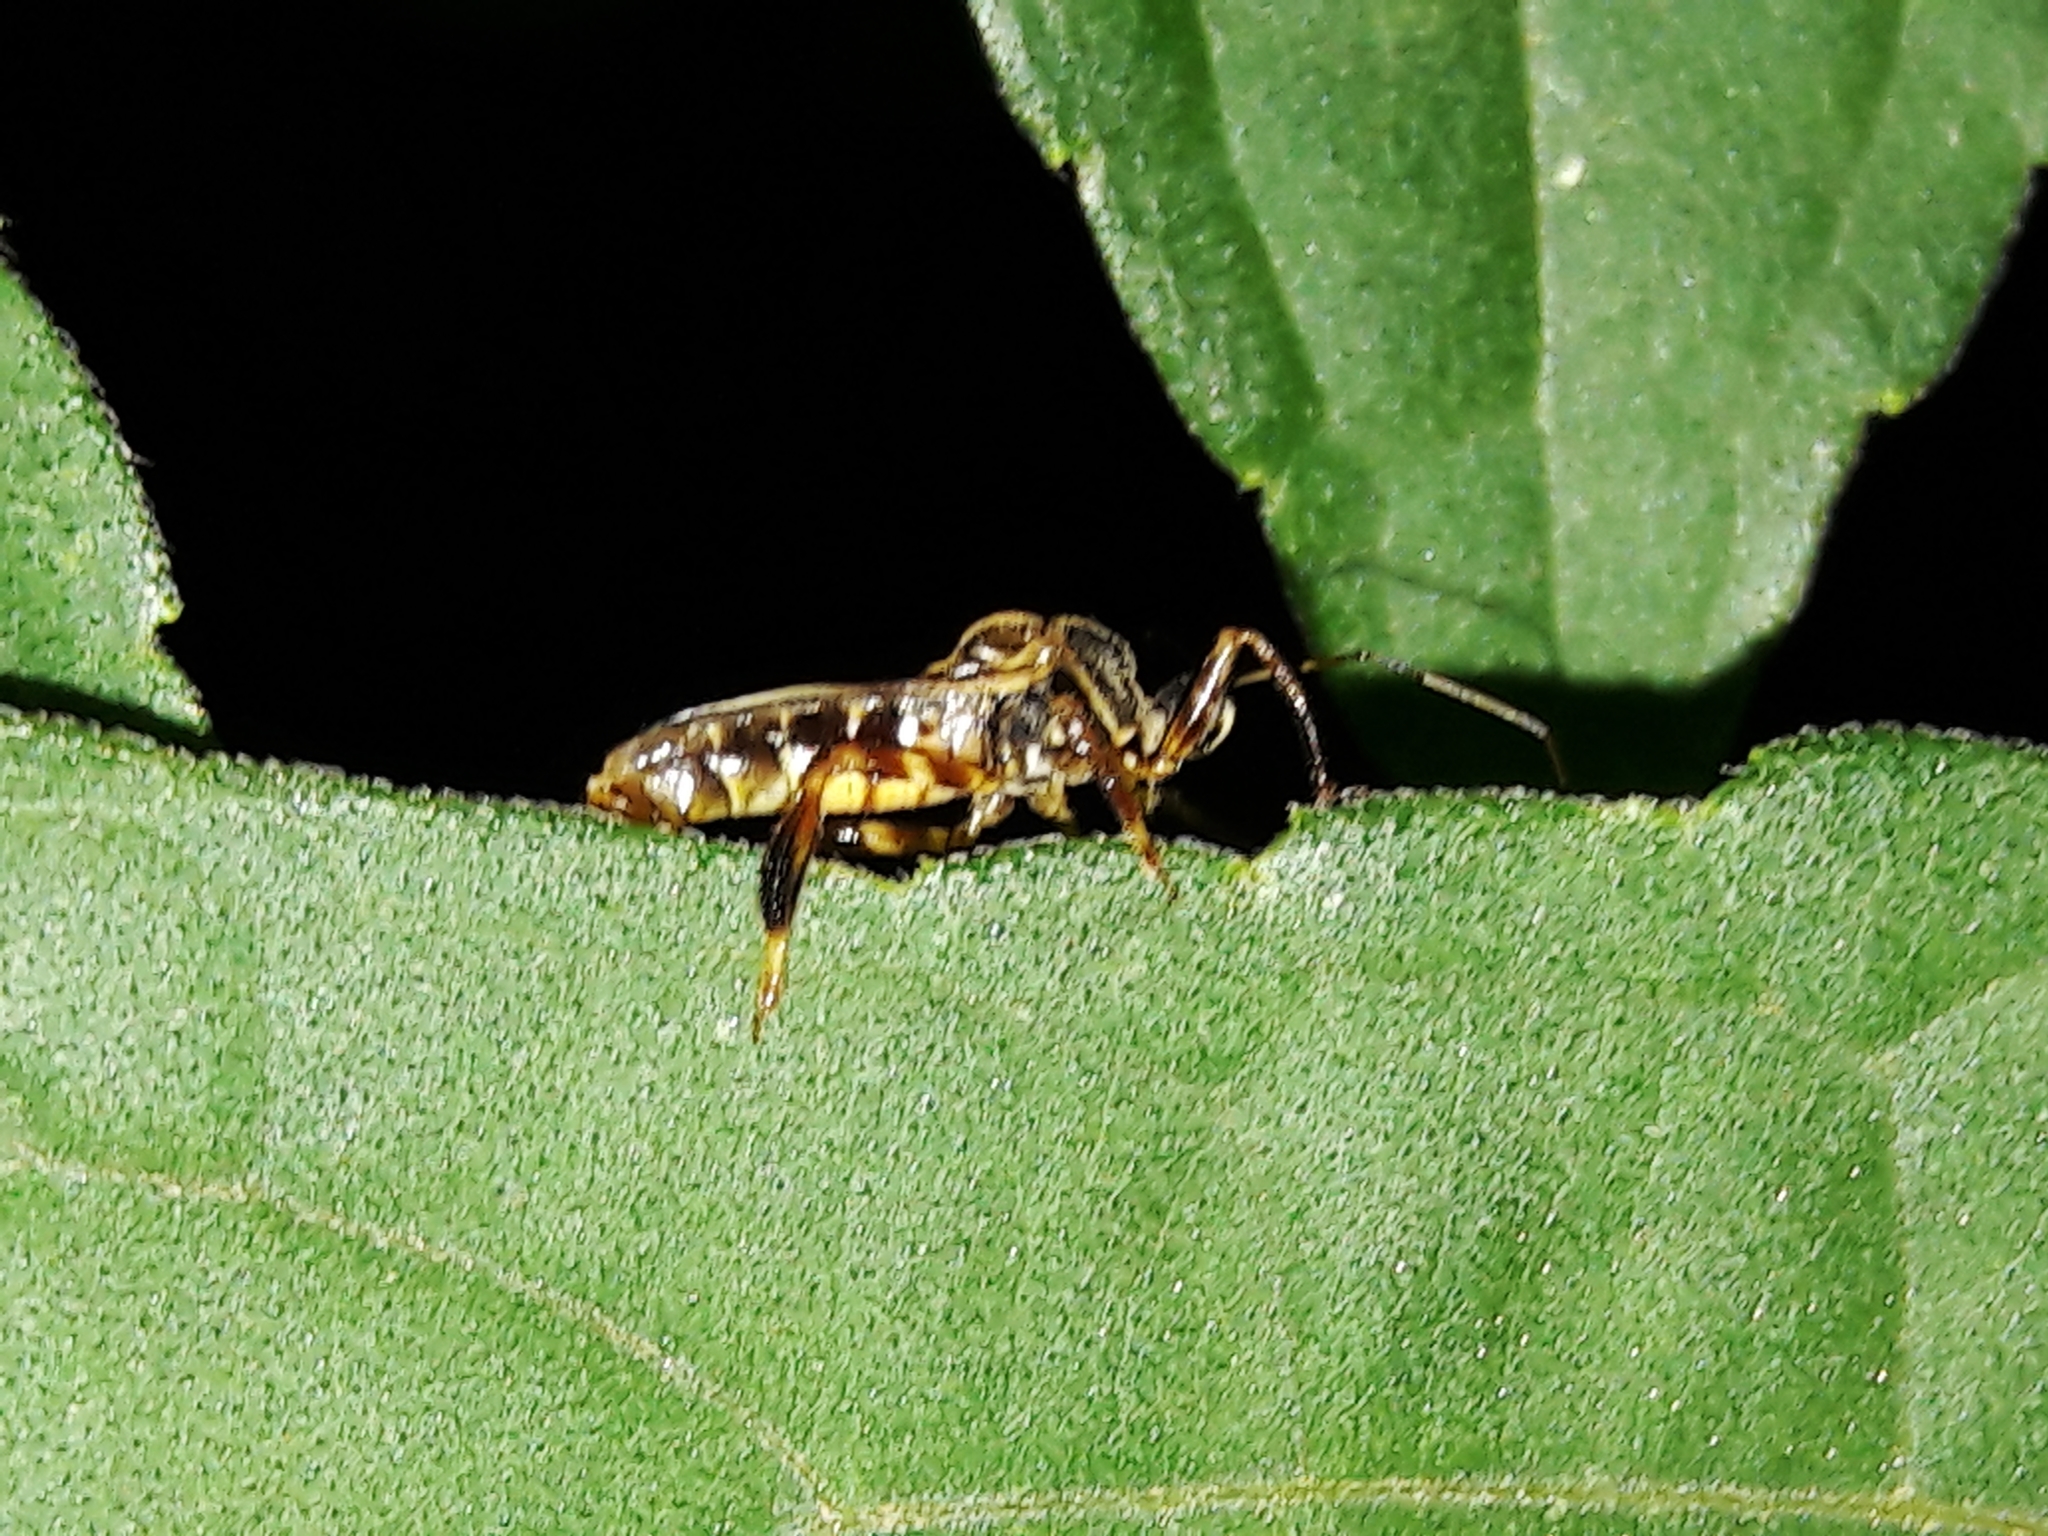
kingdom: Animalia
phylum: Arthropoda
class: Insecta
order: Hemiptera
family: Reduviidae
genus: Notocyrtus
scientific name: Notocyrtus foveatus
